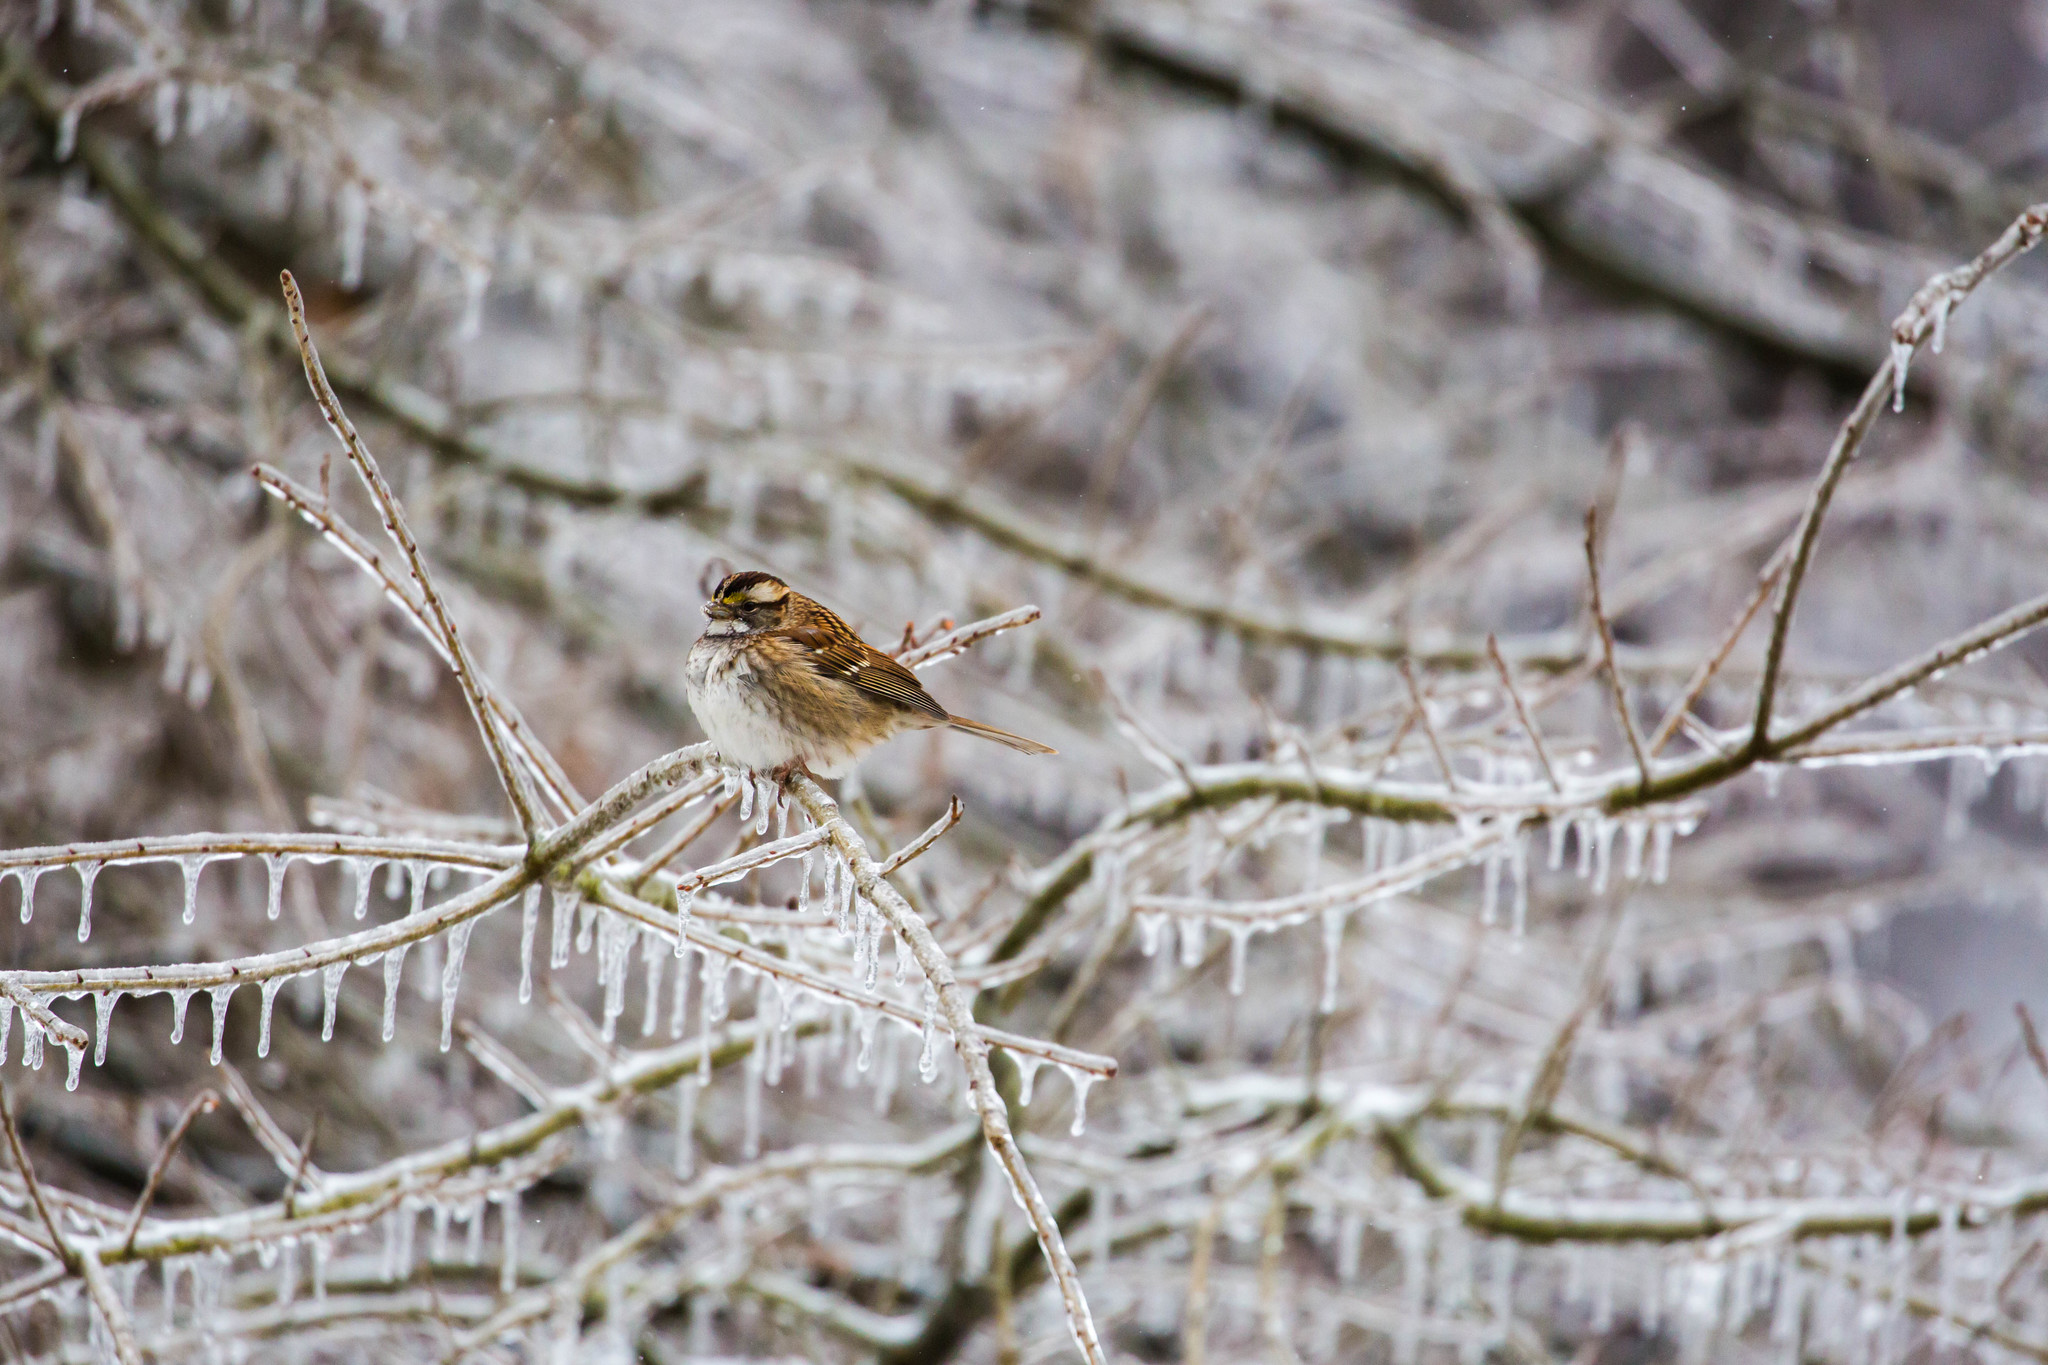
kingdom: Animalia
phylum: Chordata
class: Aves
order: Passeriformes
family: Passerellidae
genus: Zonotrichia
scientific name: Zonotrichia albicollis
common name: White-throated sparrow
